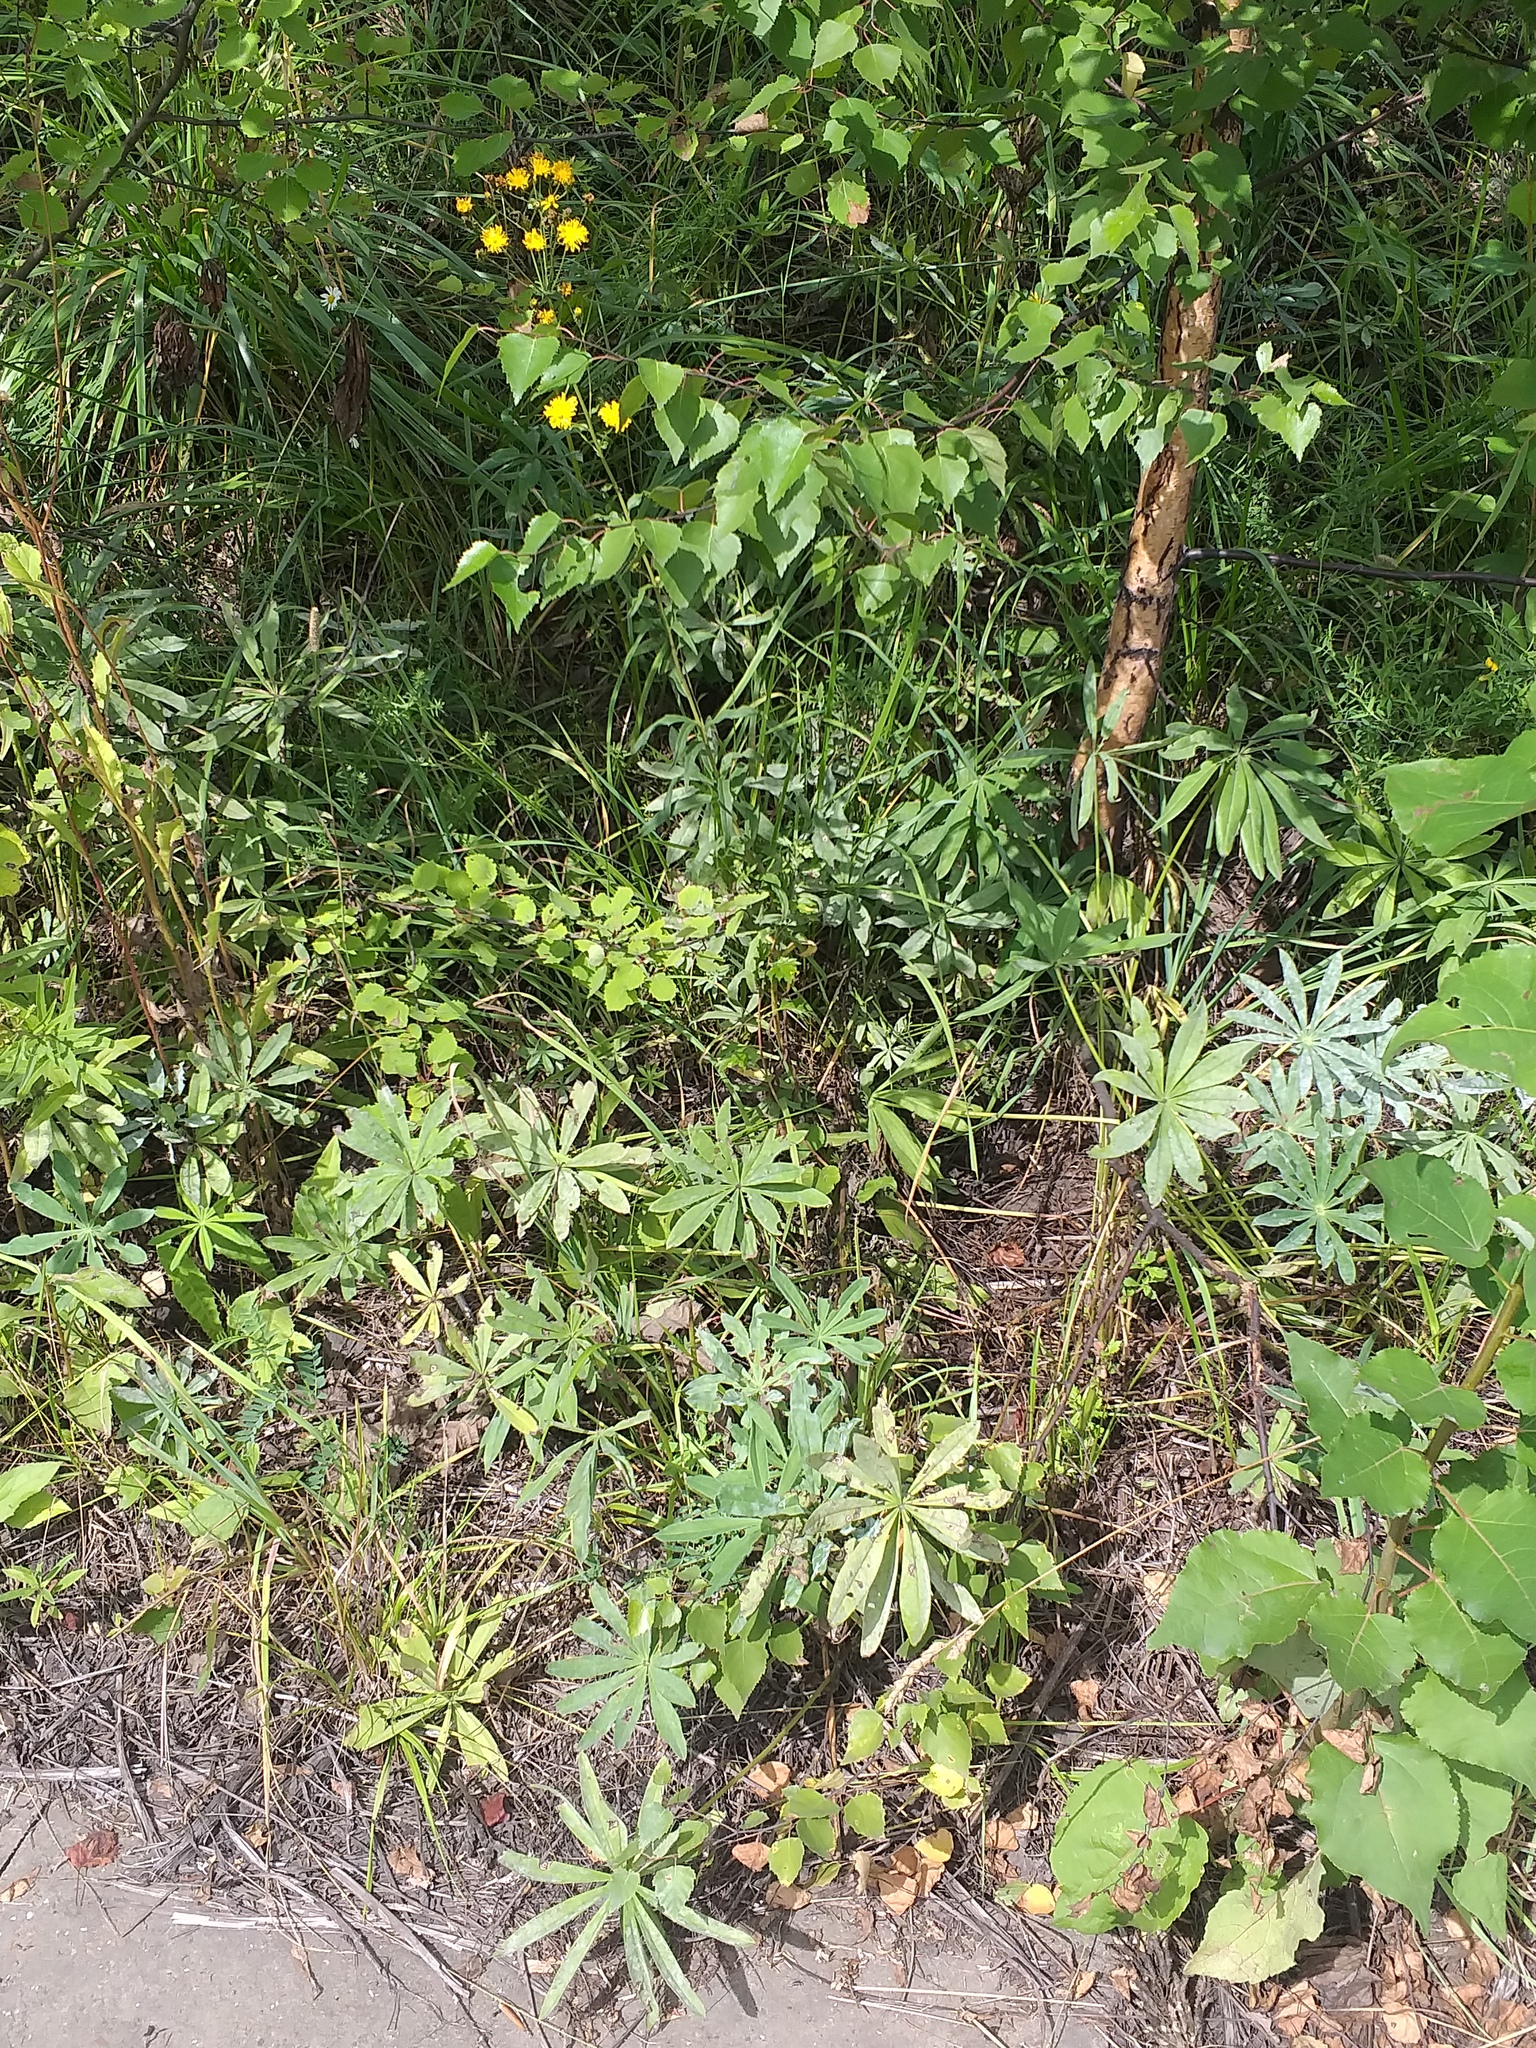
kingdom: Plantae
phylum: Tracheophyta
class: Magnoliopsida
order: Fabales
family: Fabaceae
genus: Lupinus
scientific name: Lupinus polyphyllus
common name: Garden lupin
